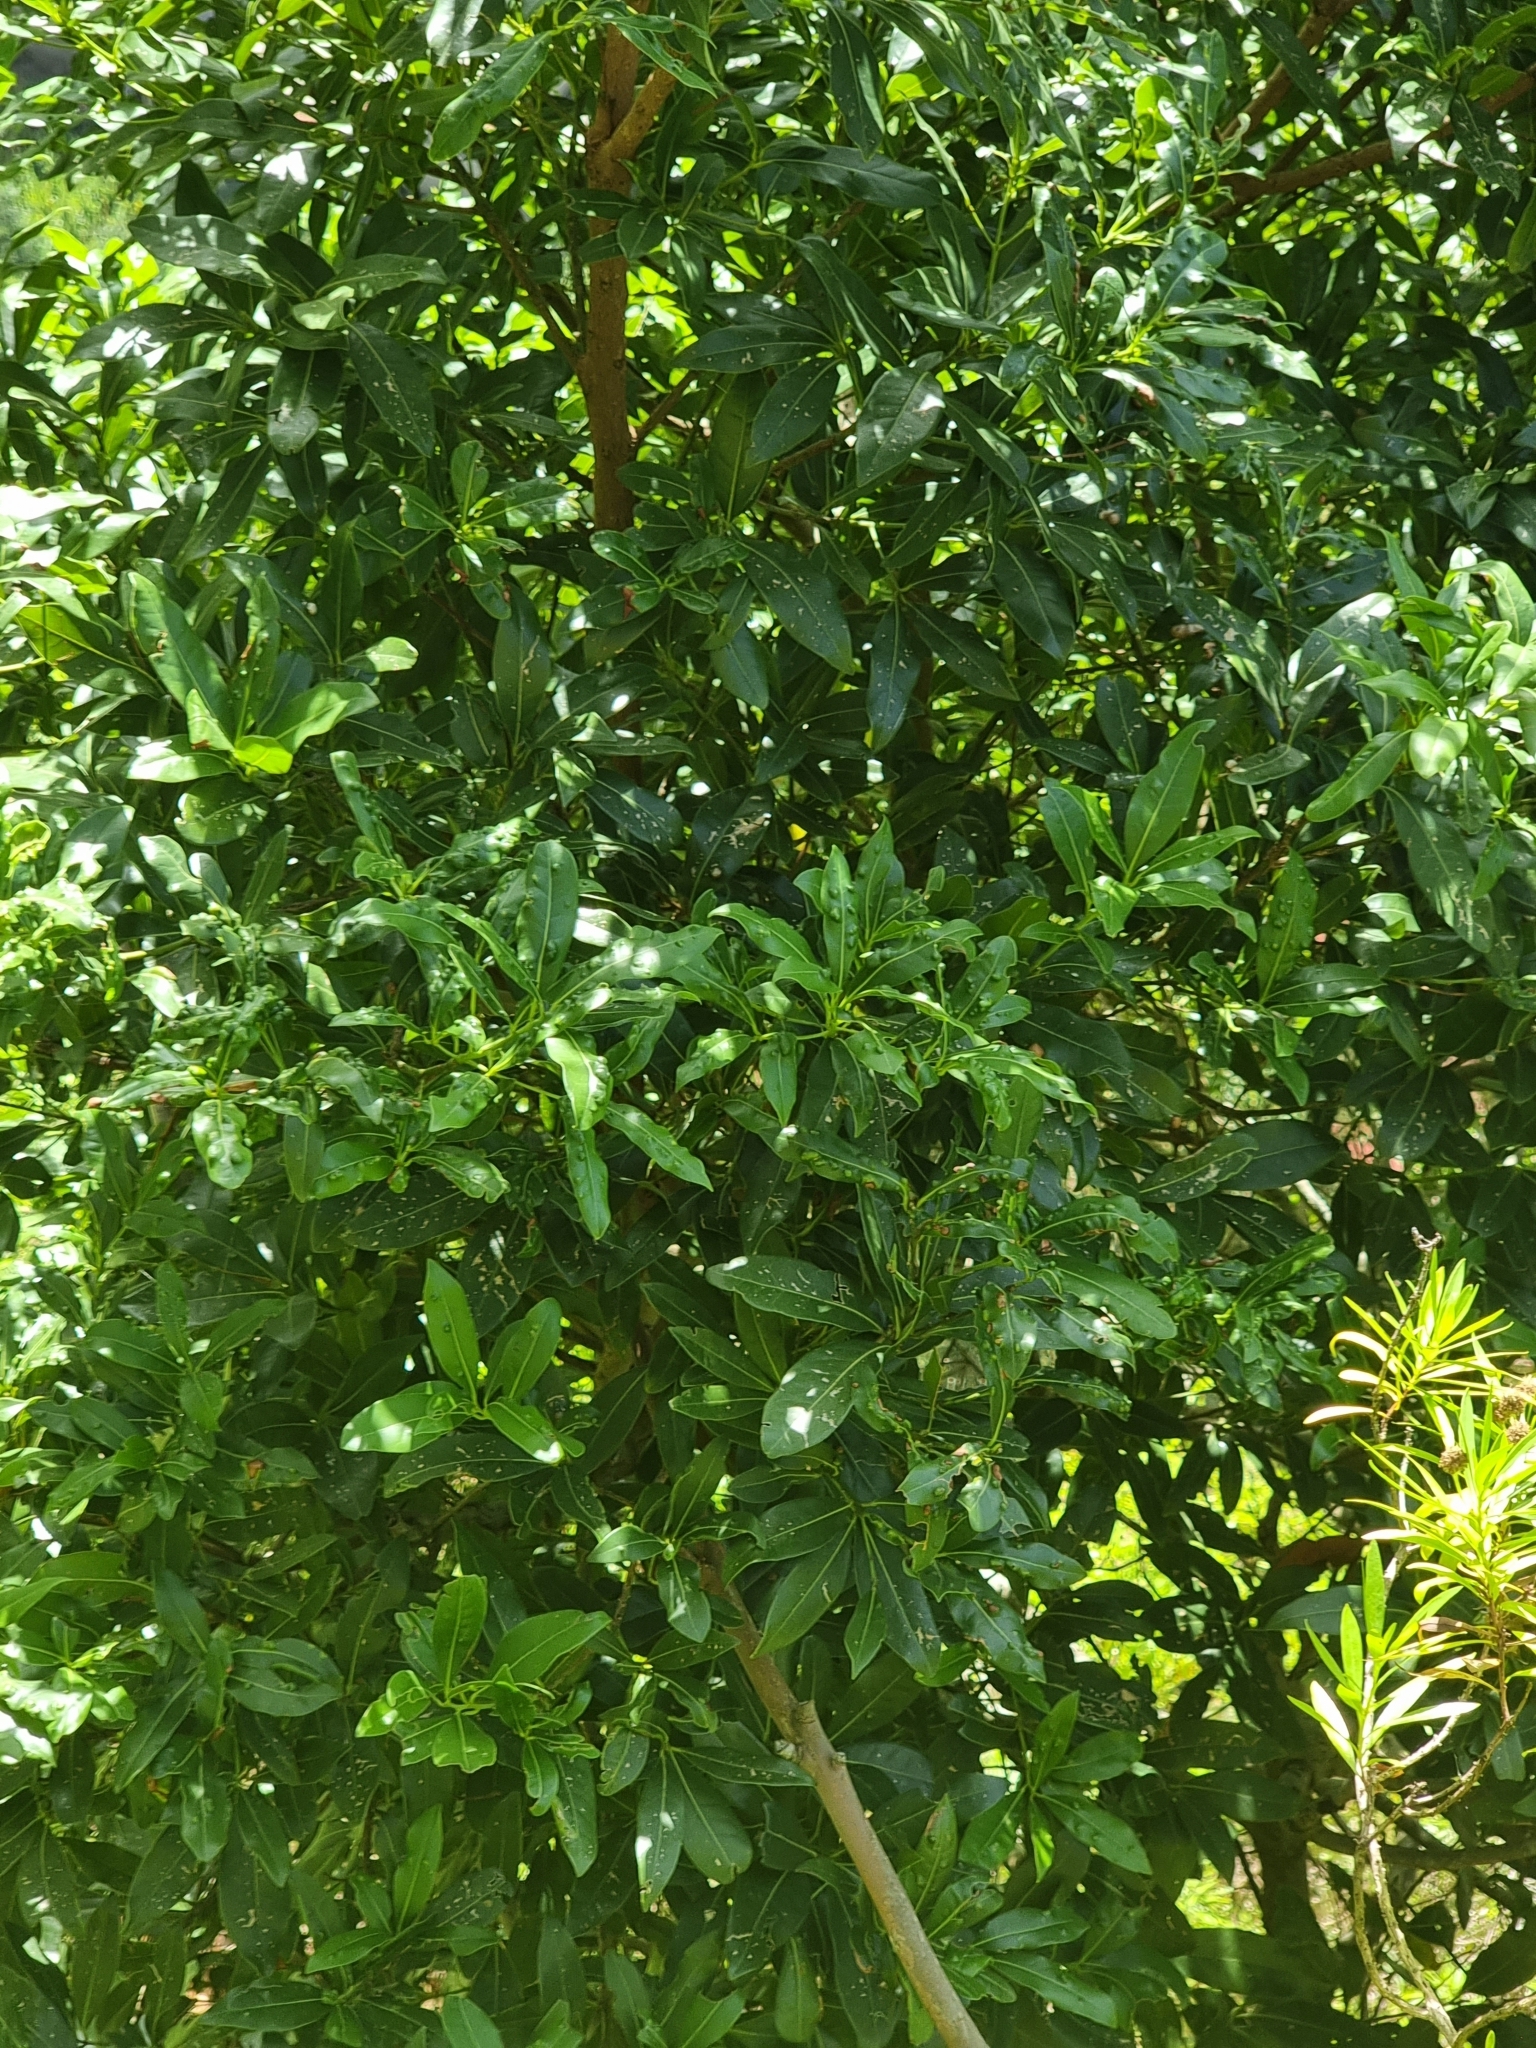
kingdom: Plantae
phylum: Tracheophyta
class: Magnoliopsida
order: Laurales
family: Lauraceae
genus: Apollonias
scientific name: Apollonias barbujana
